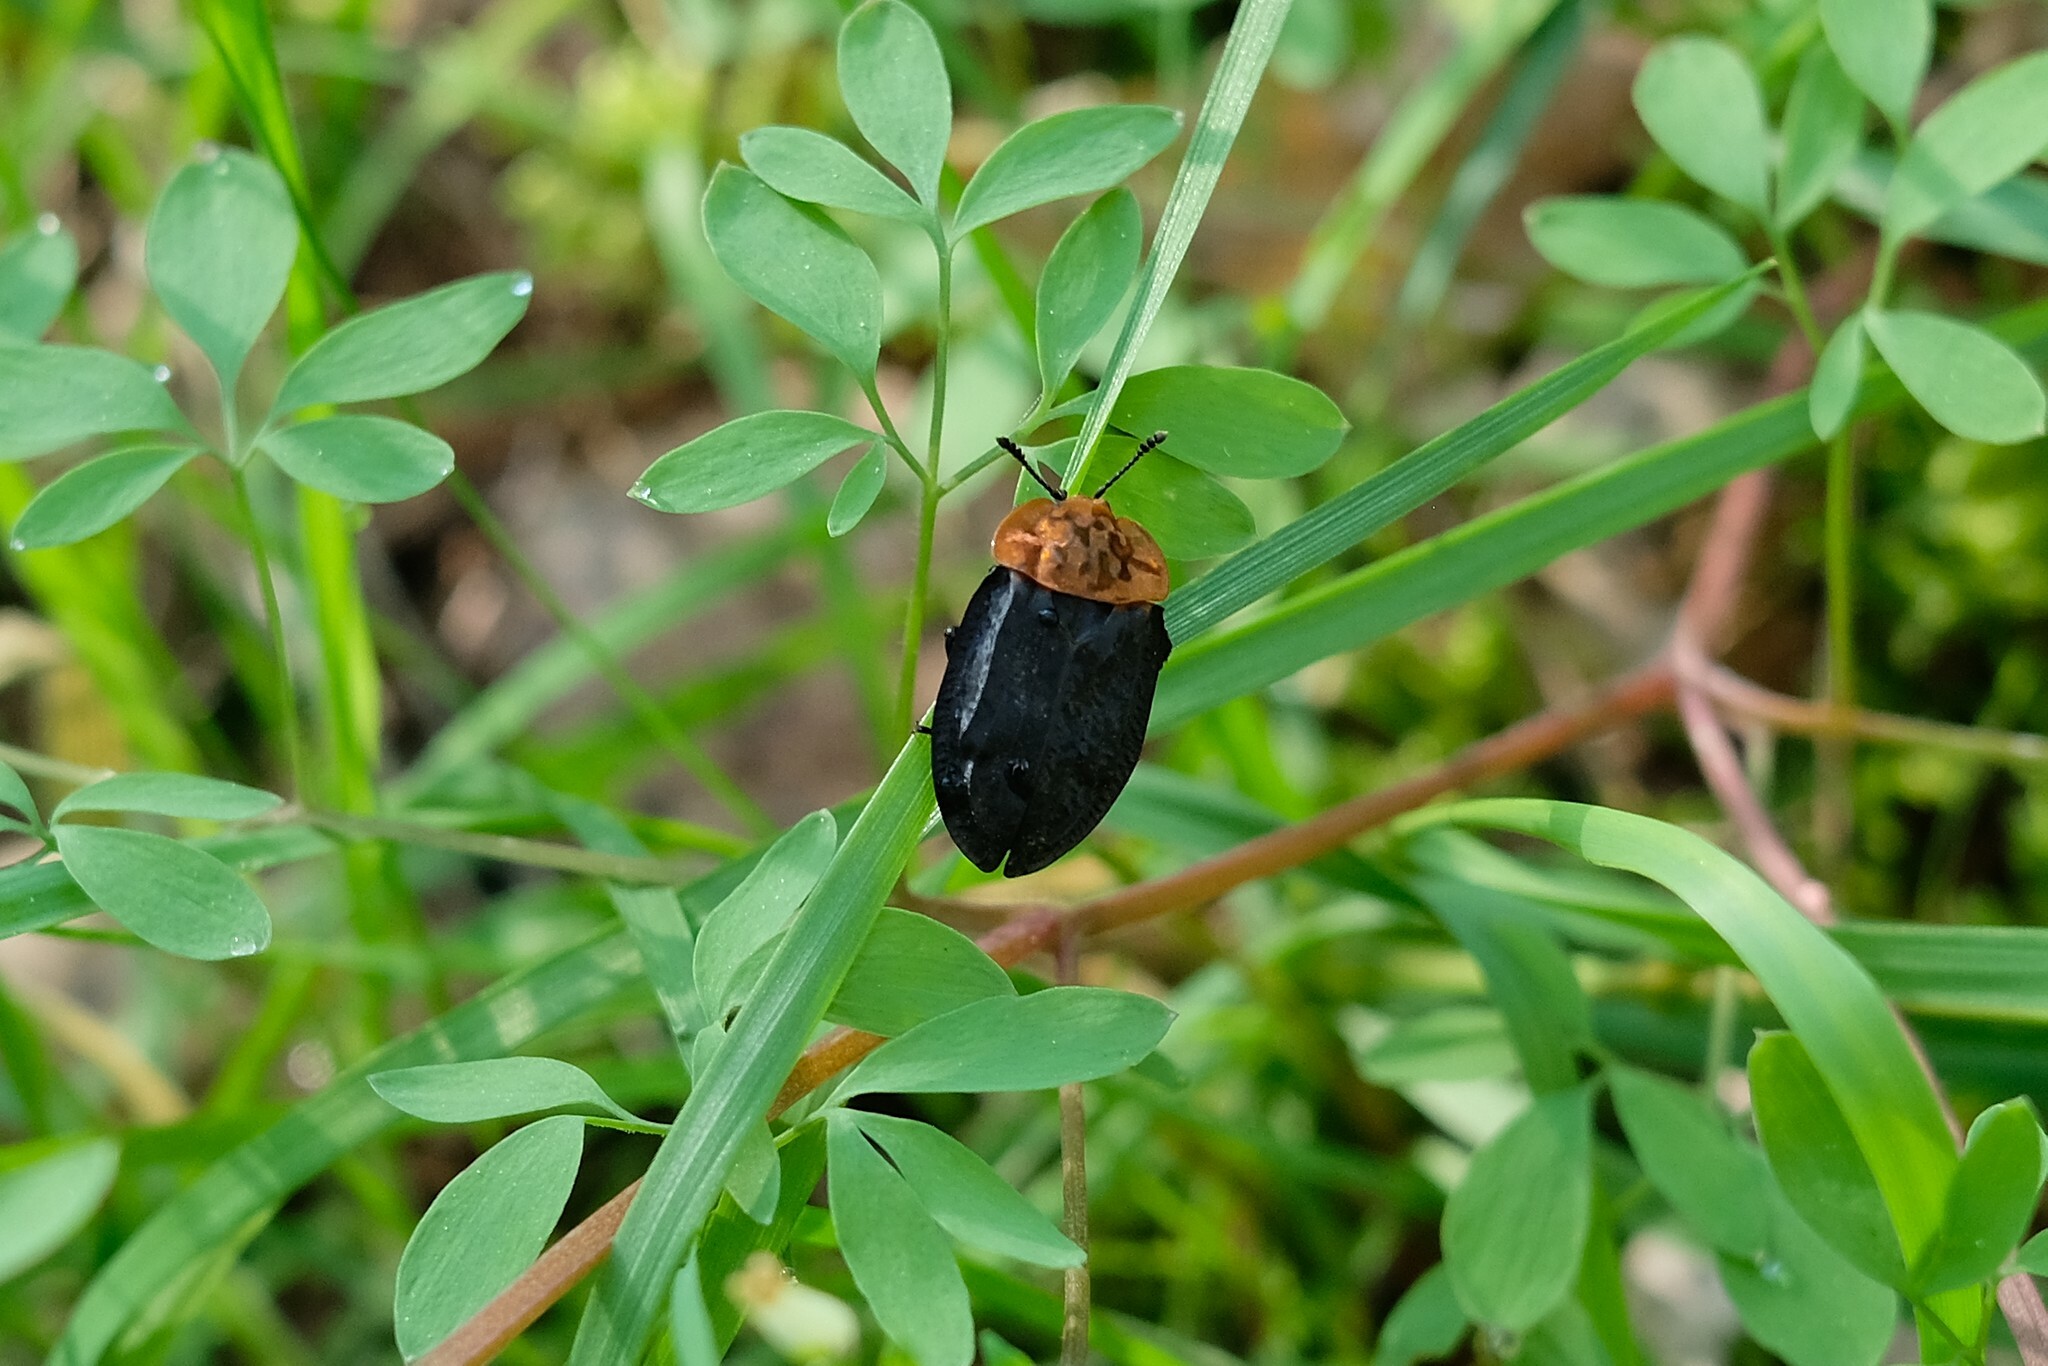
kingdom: Animalia
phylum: Arthropoda
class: Insecta
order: Coleoptera
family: Staphylinidae
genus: Oiceoptoma
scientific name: Oiceoptoma thoracicum
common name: Red-breasted carrion beetle
